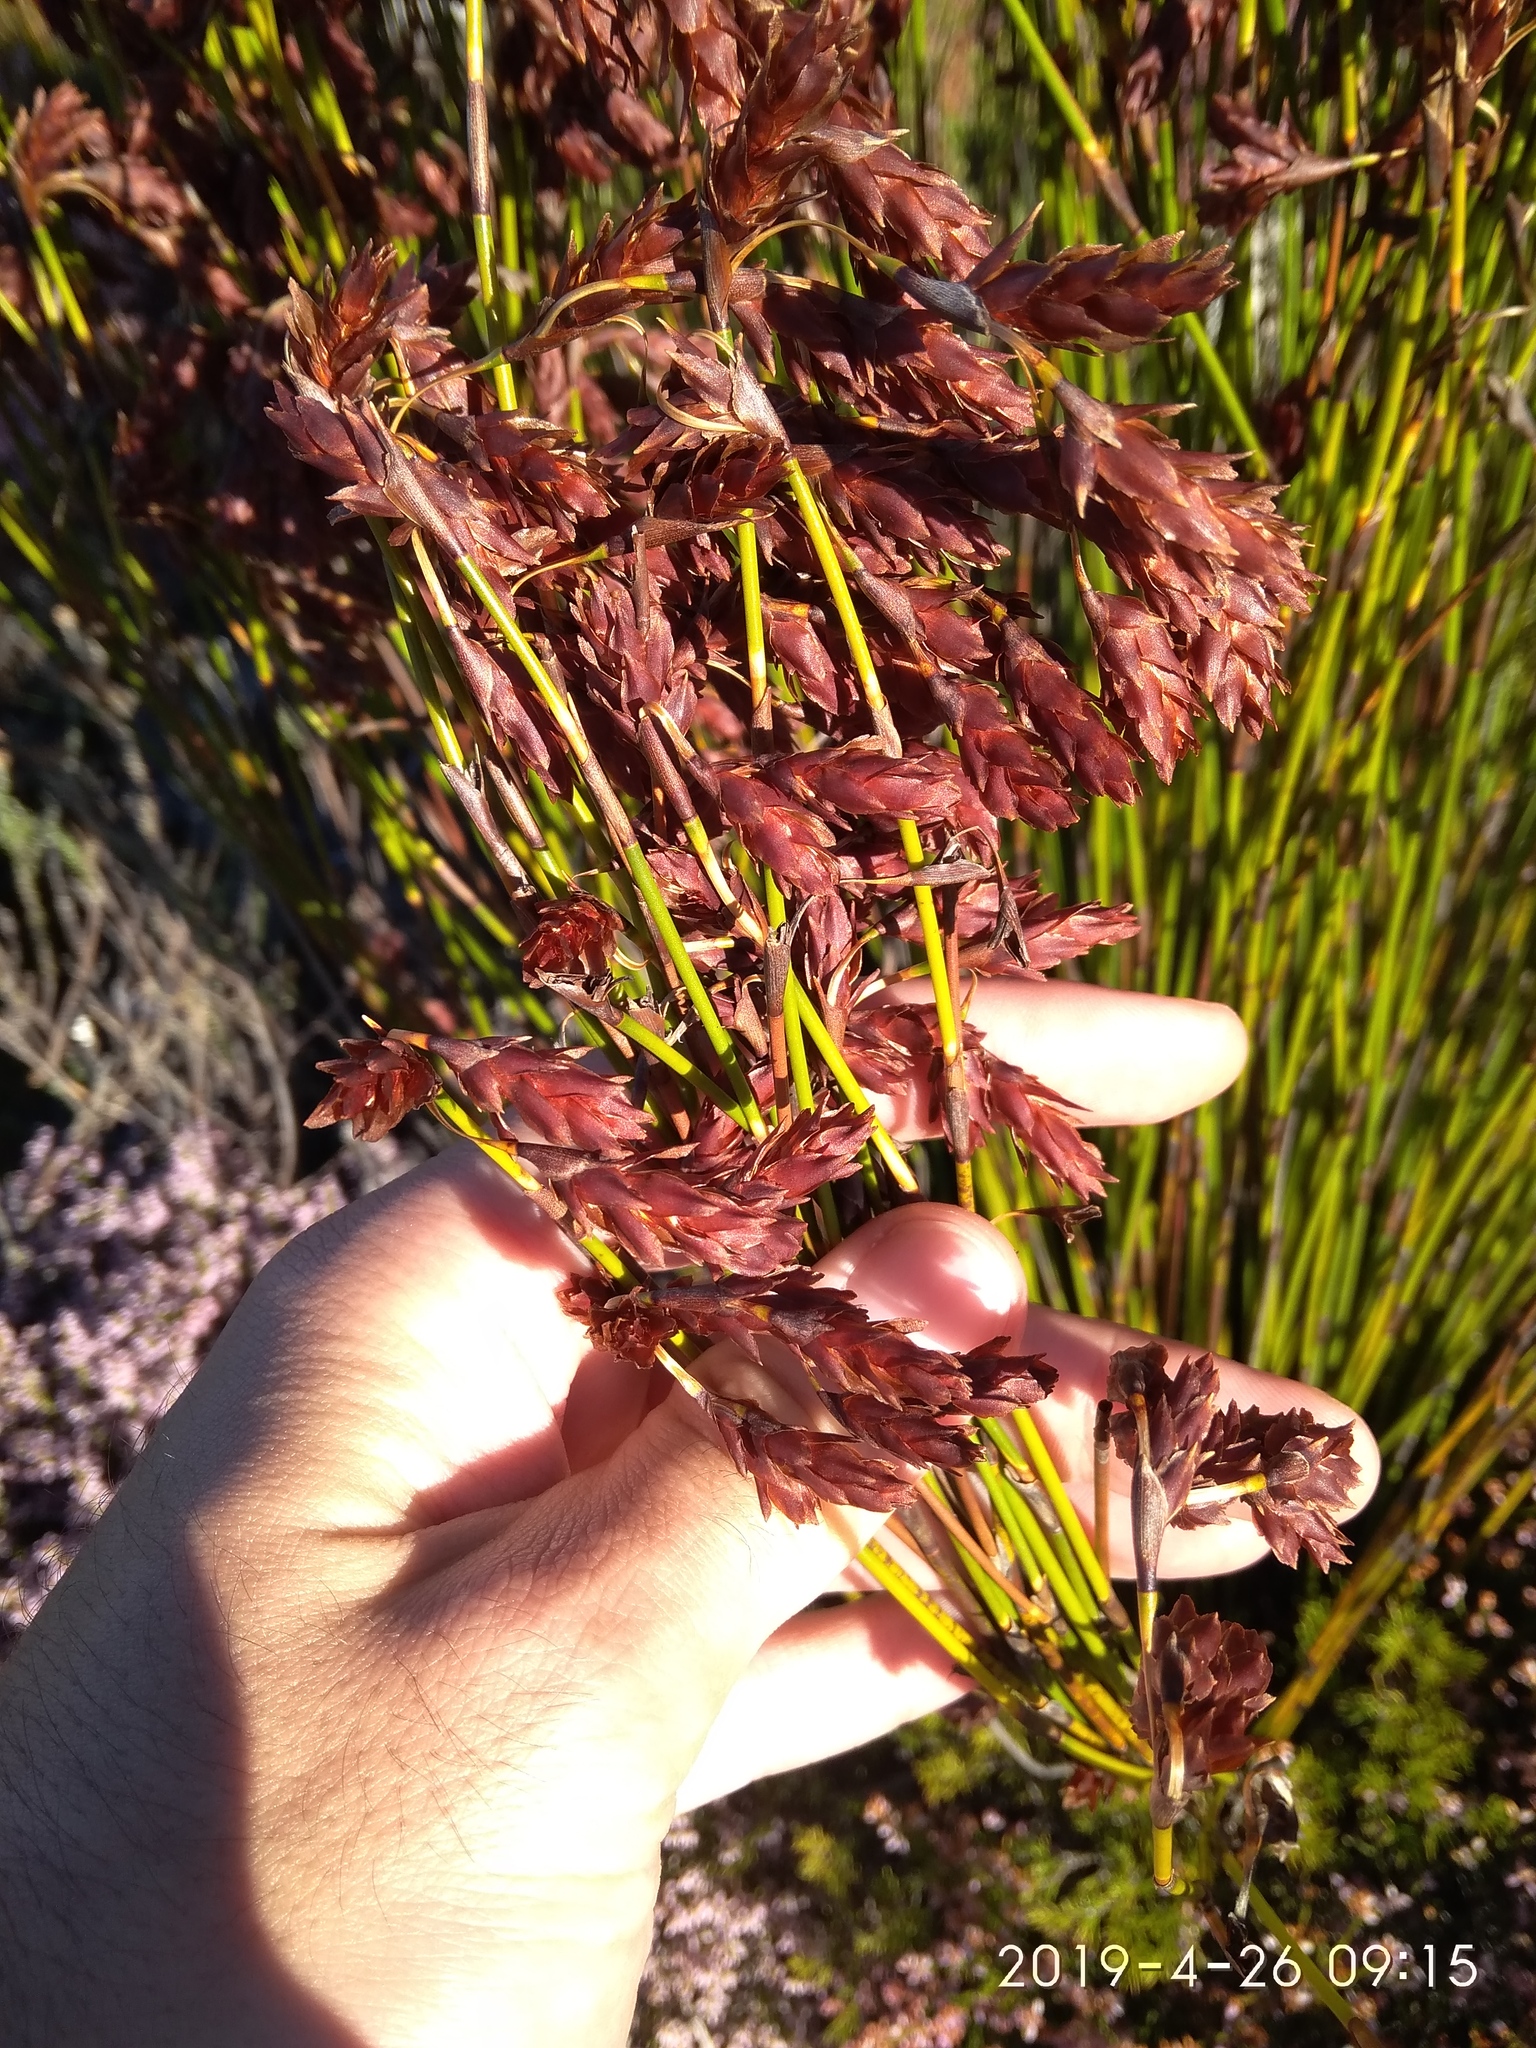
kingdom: Plantae
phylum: Tracheophyta
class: Liliopsida
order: Poales
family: Restionaceae
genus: Restio
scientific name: Restio bifarius
